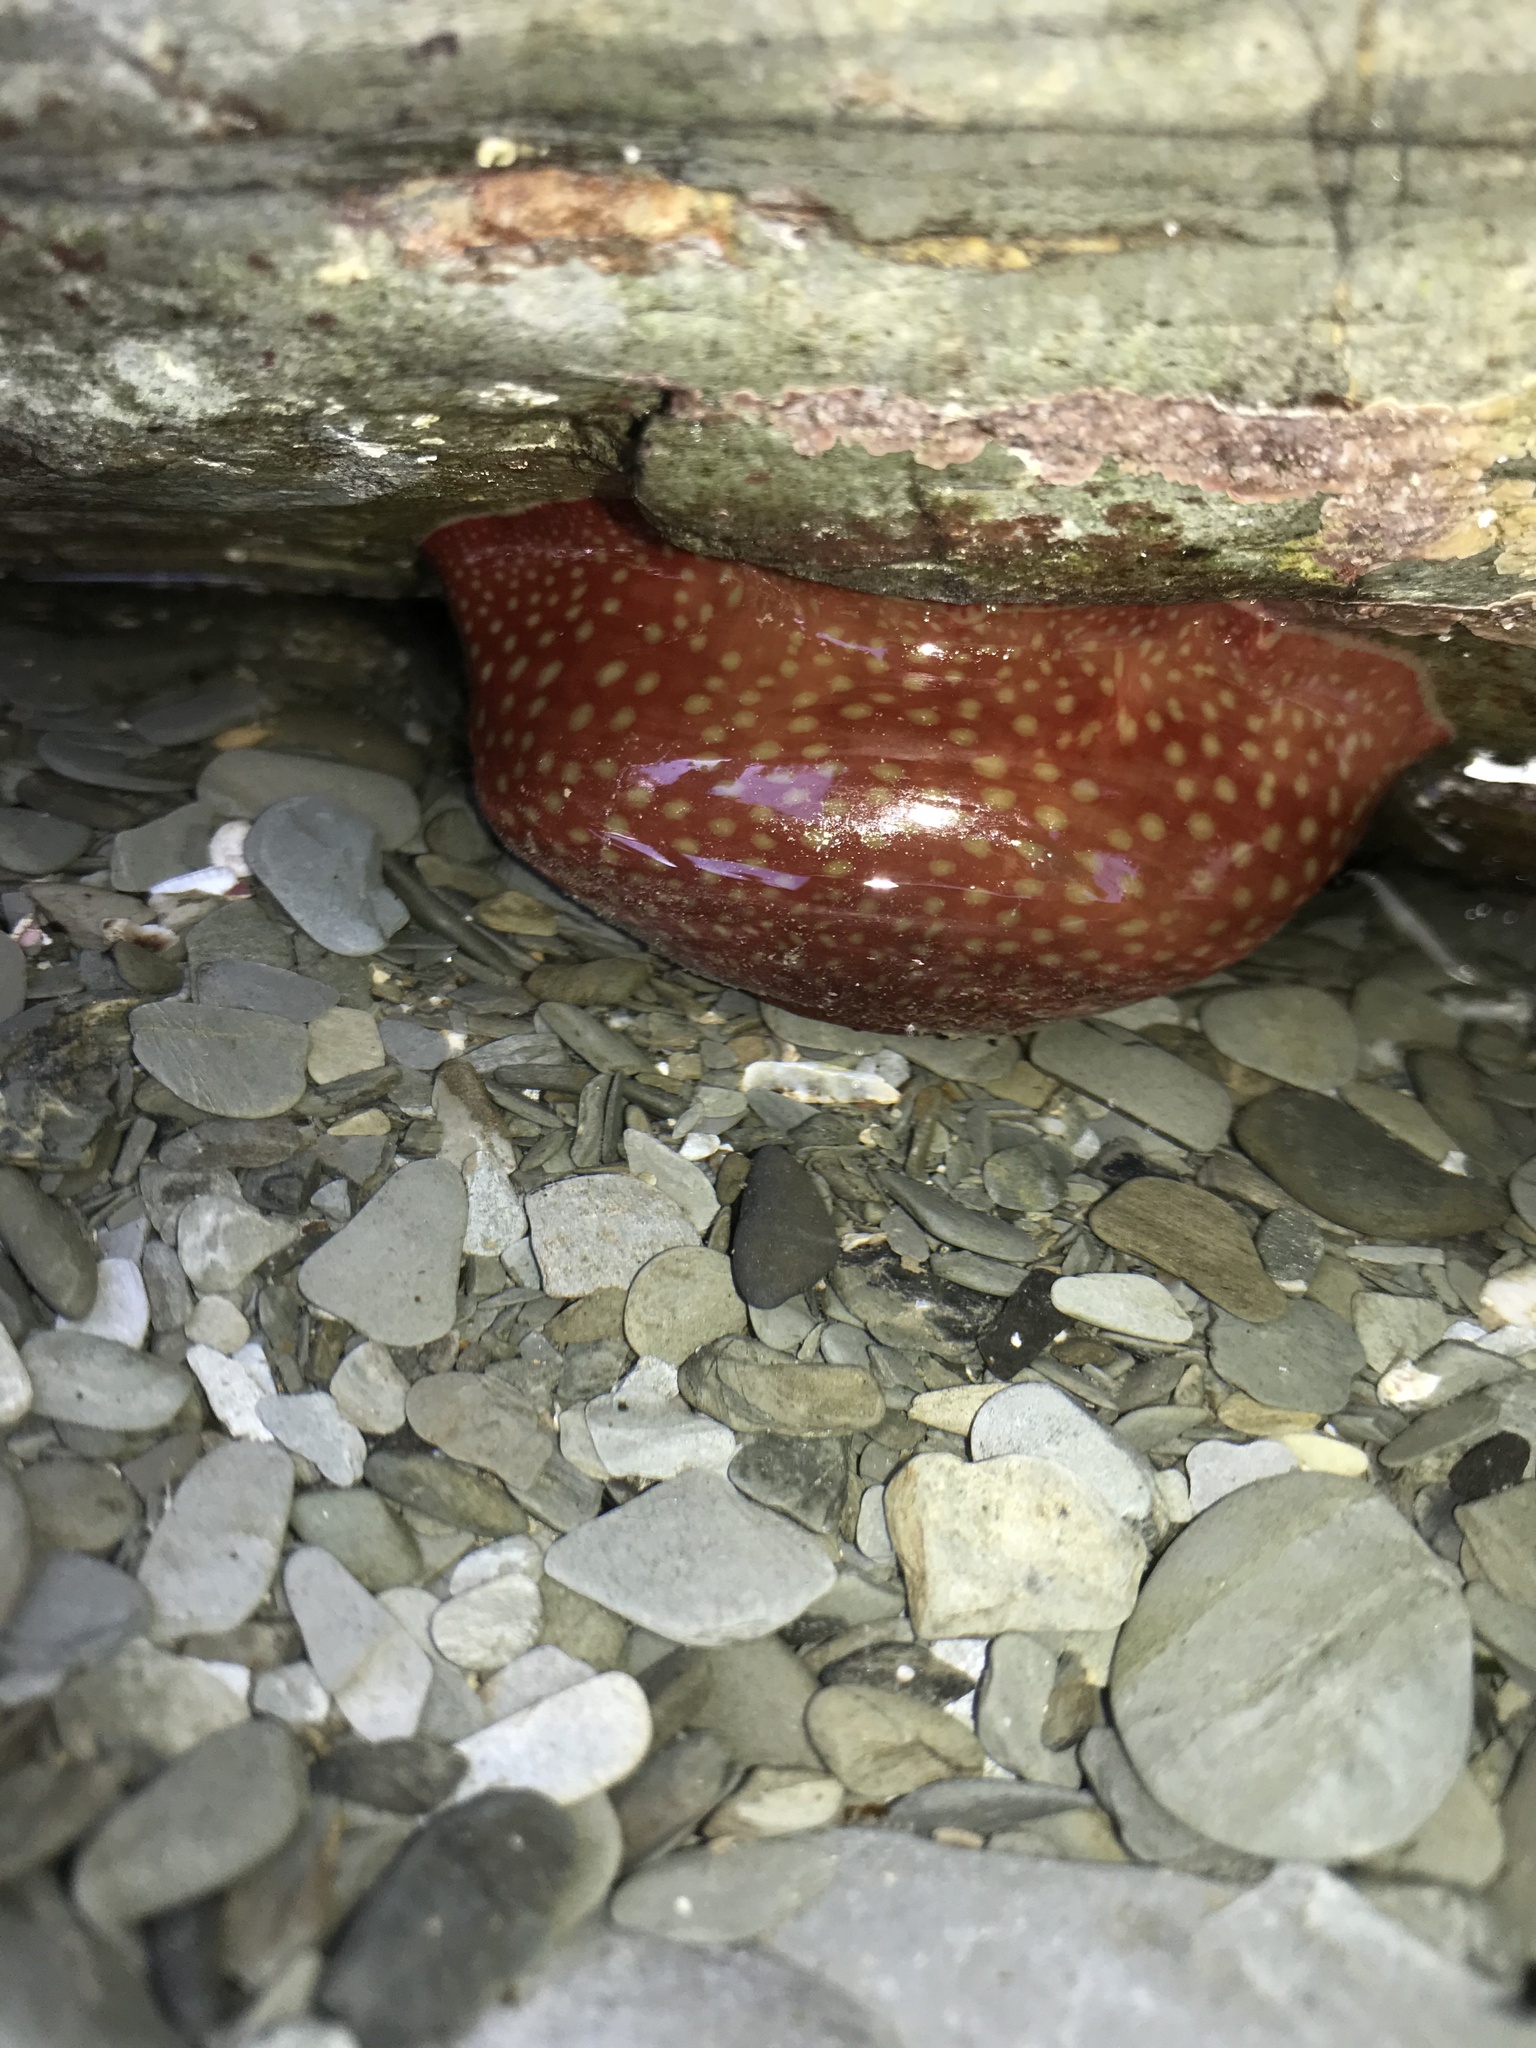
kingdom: Animalia
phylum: Cnidaria
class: Anthozoa
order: Actiniaria
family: Actiniidae
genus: Actinia
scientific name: Actinia fragacea
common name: Strawberry anemone
